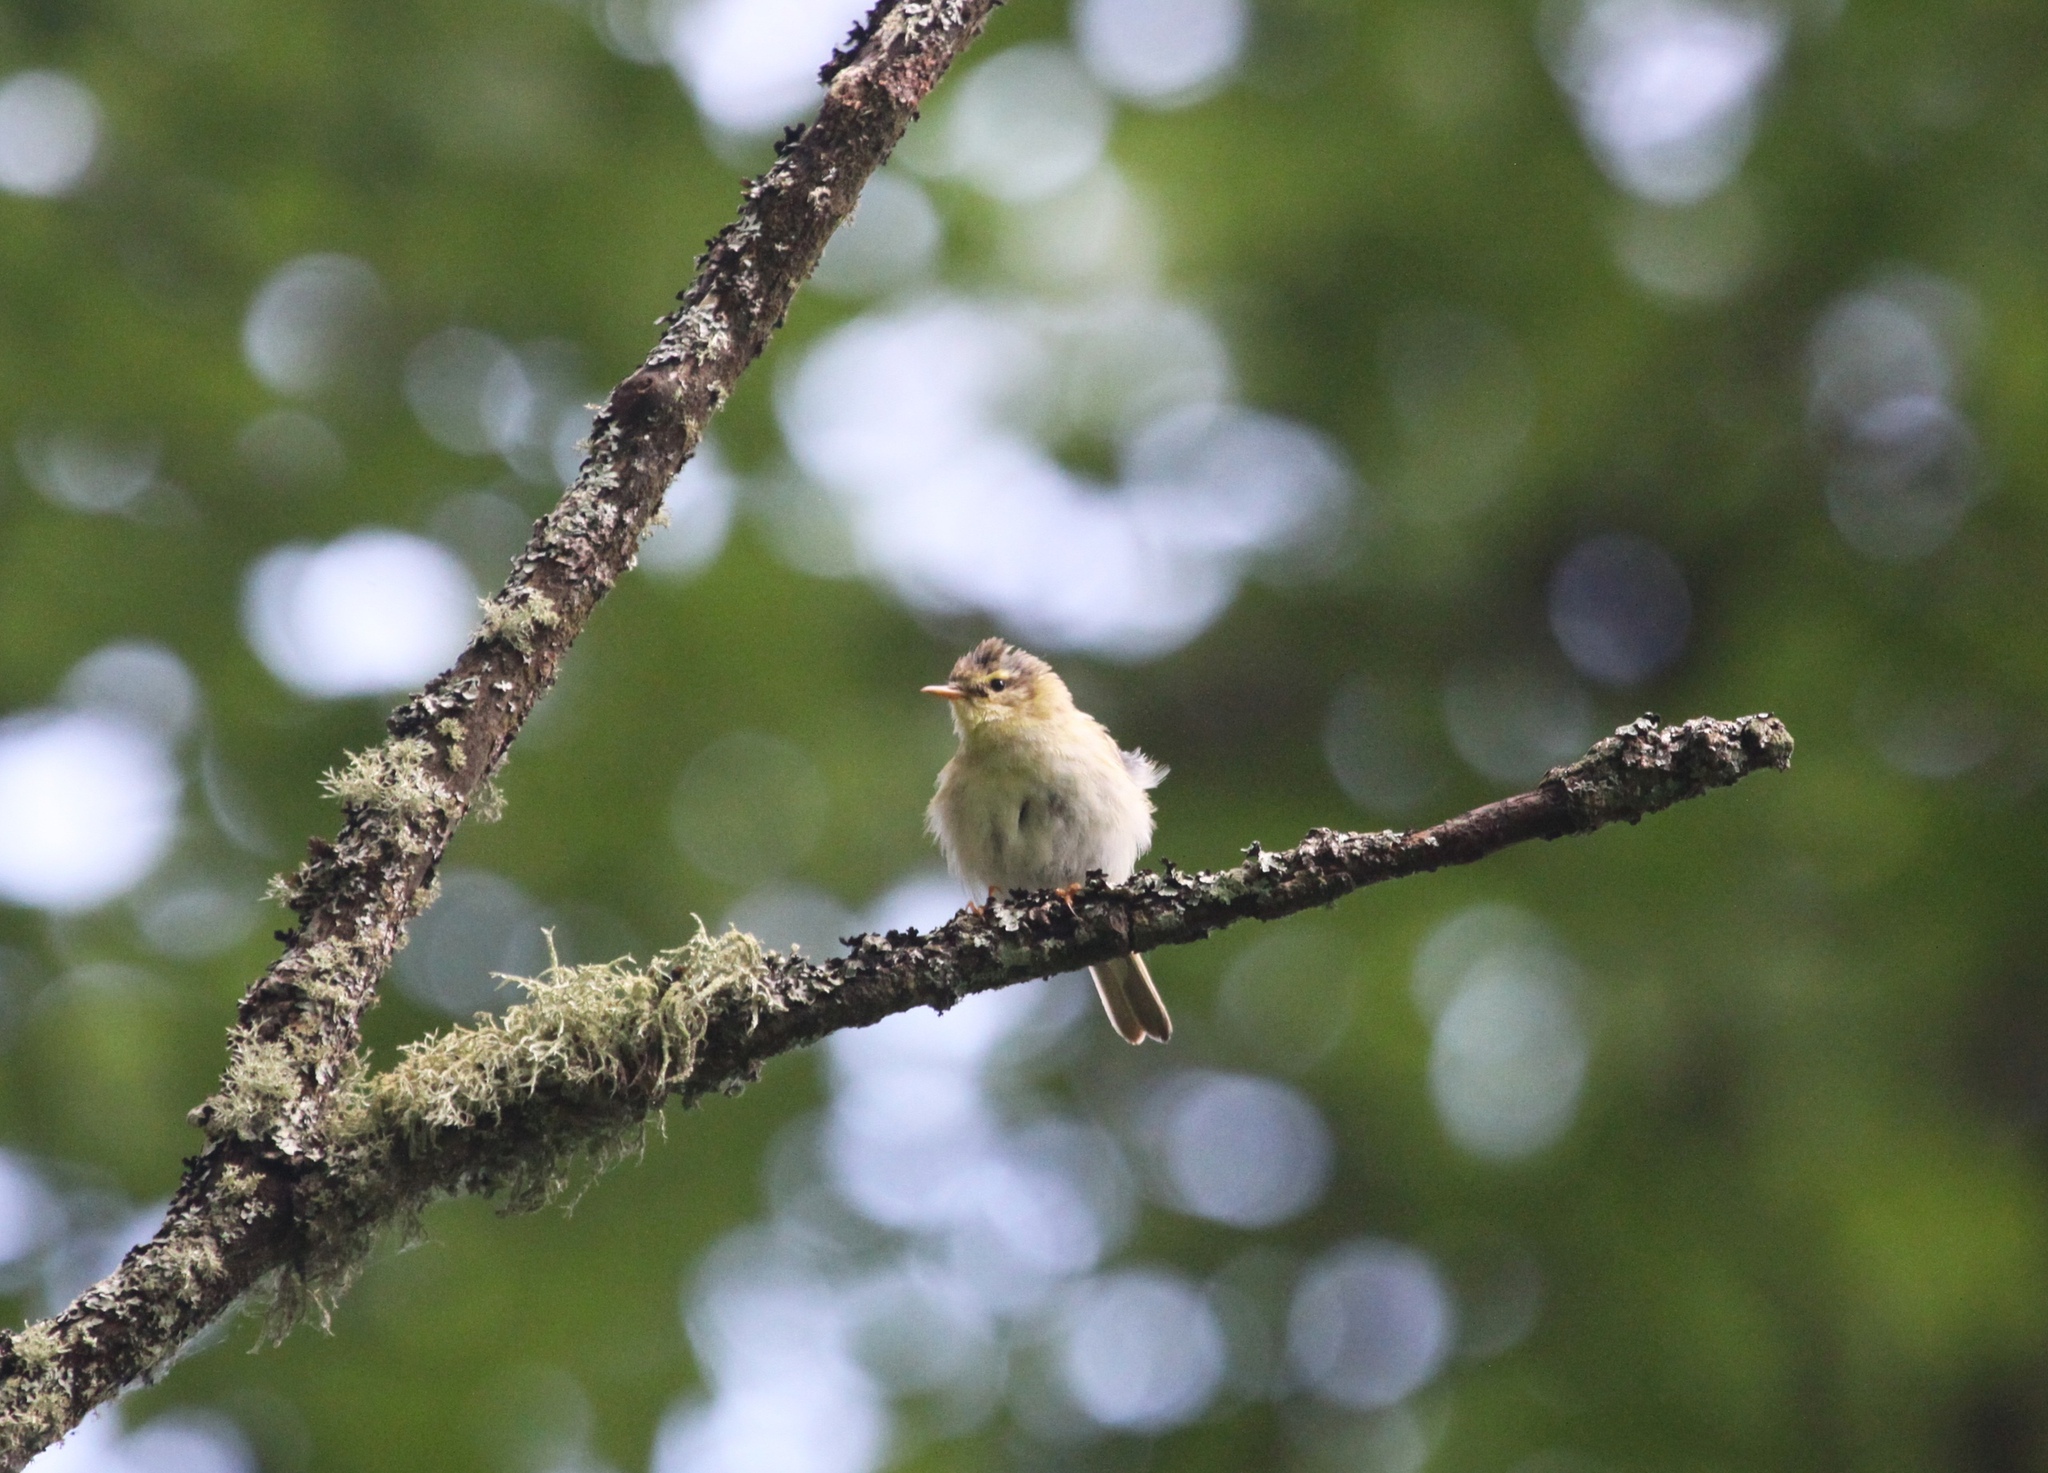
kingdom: Animalia
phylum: Chordata
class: Aves
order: Passeriformes
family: Phylloscopidae
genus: Phylloscopus
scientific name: Phylloscopus trochilus
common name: Willow warbler
